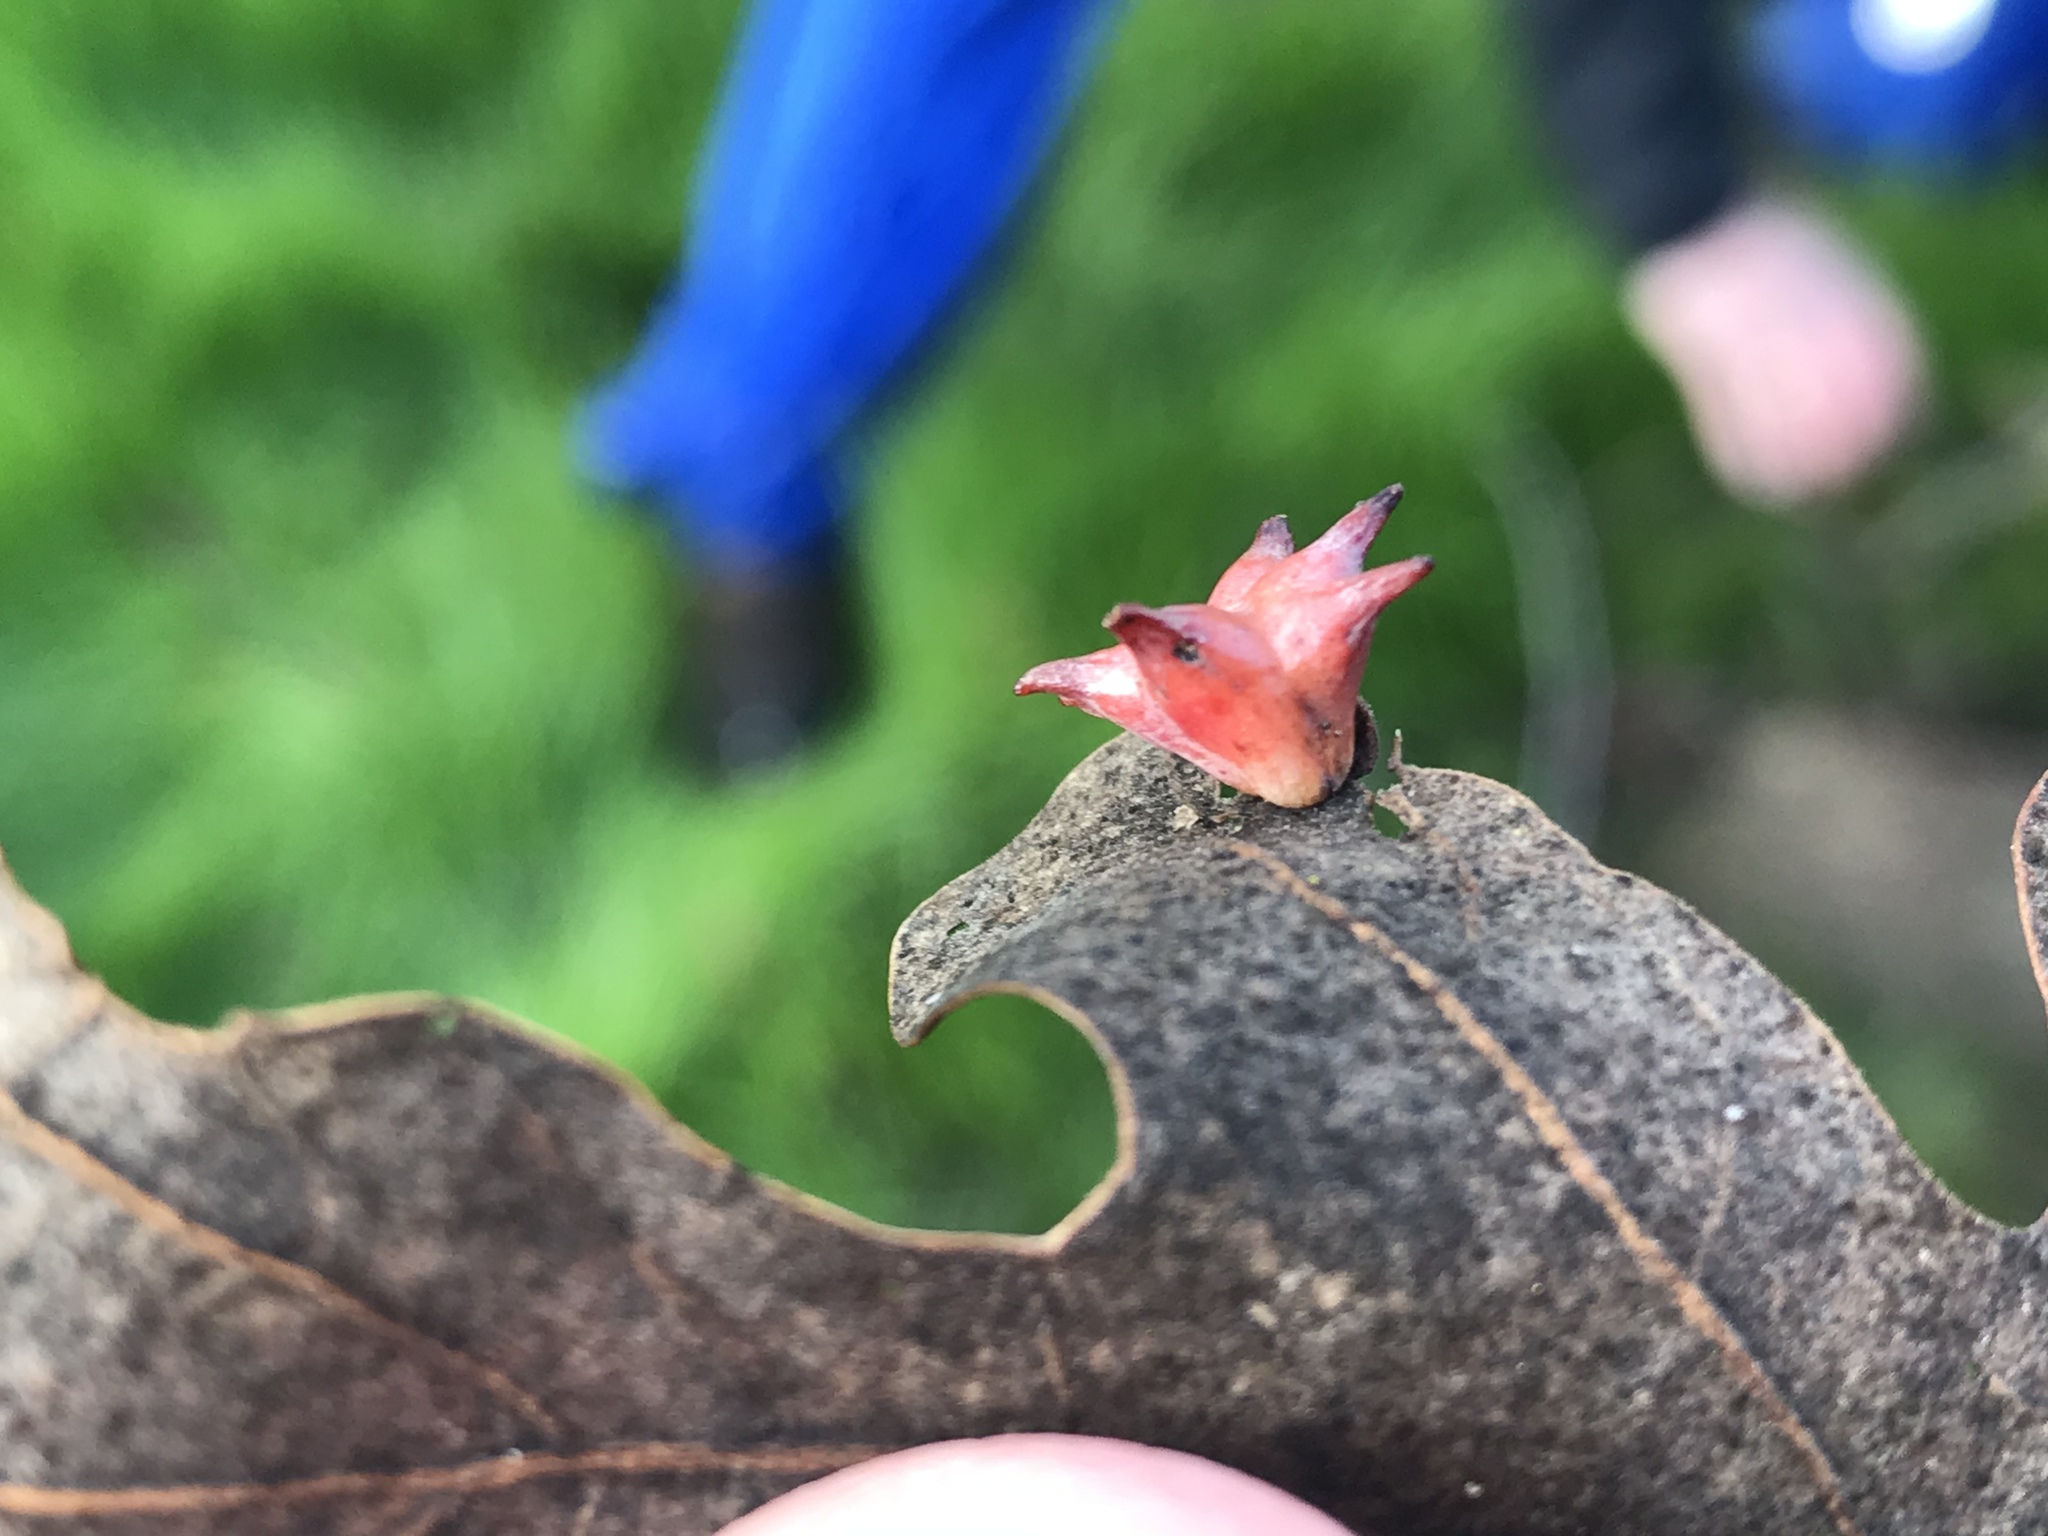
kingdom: Animalia
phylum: Arthropoda
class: Insecta
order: Hymenoptera
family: Cynipidae
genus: Cynips
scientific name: Cynips douglasi
